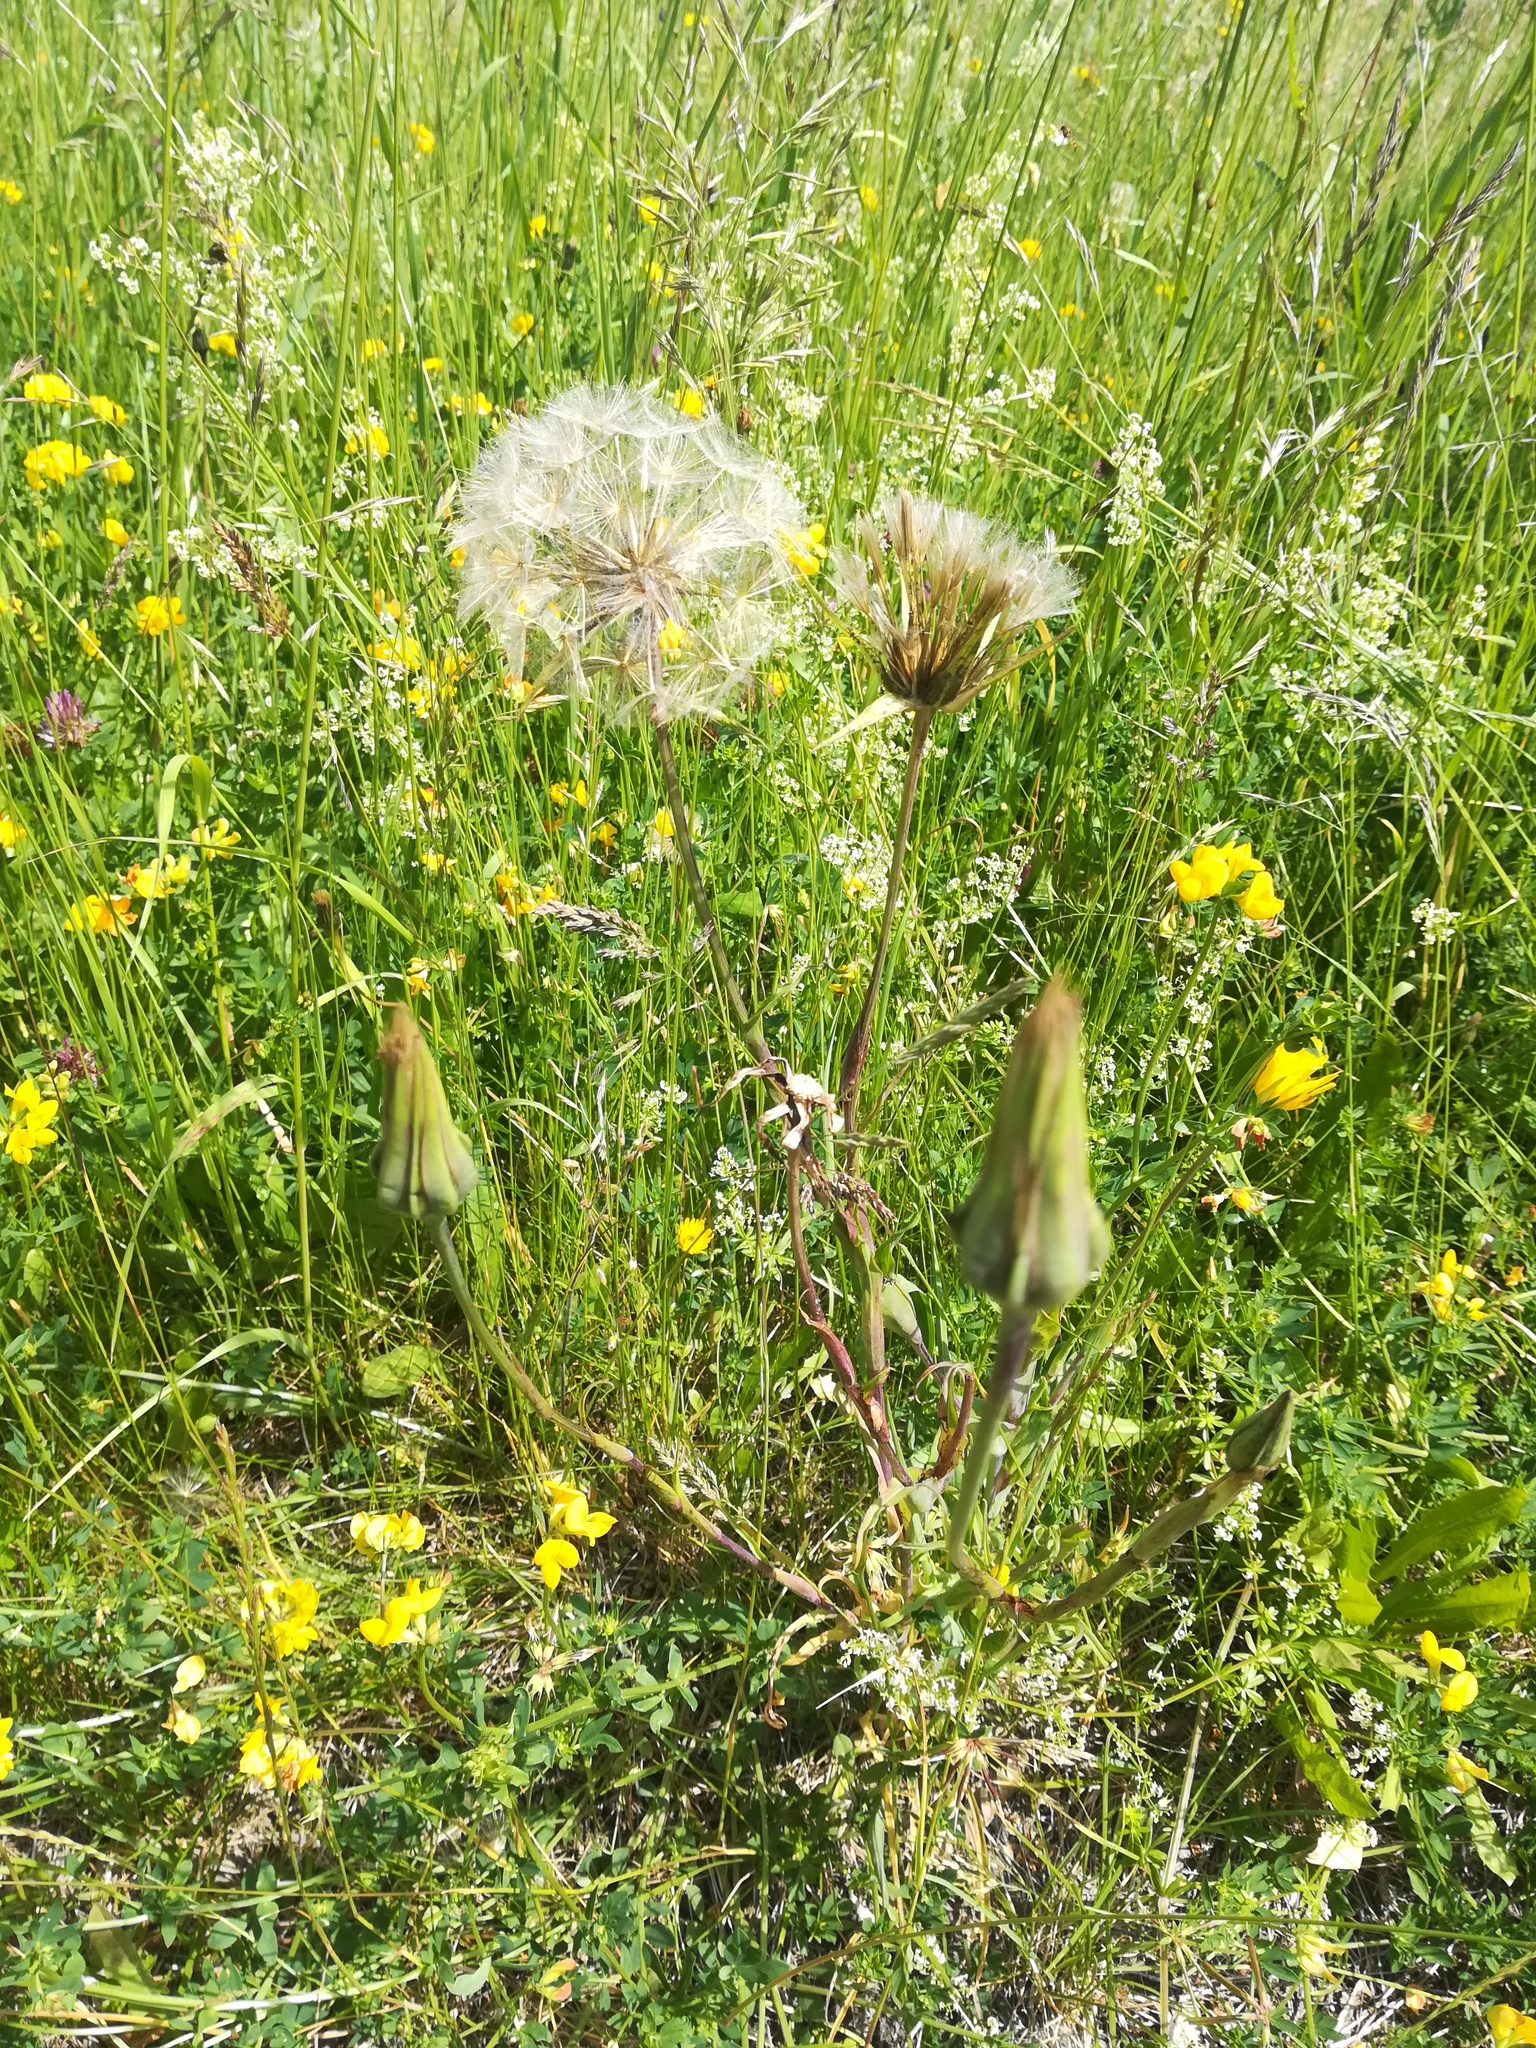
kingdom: Plantae
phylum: Tracheophyta
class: Magnoliopsida
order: Asterales
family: Asteraceae
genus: Tragopogon
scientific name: Tragopogon orientalis
